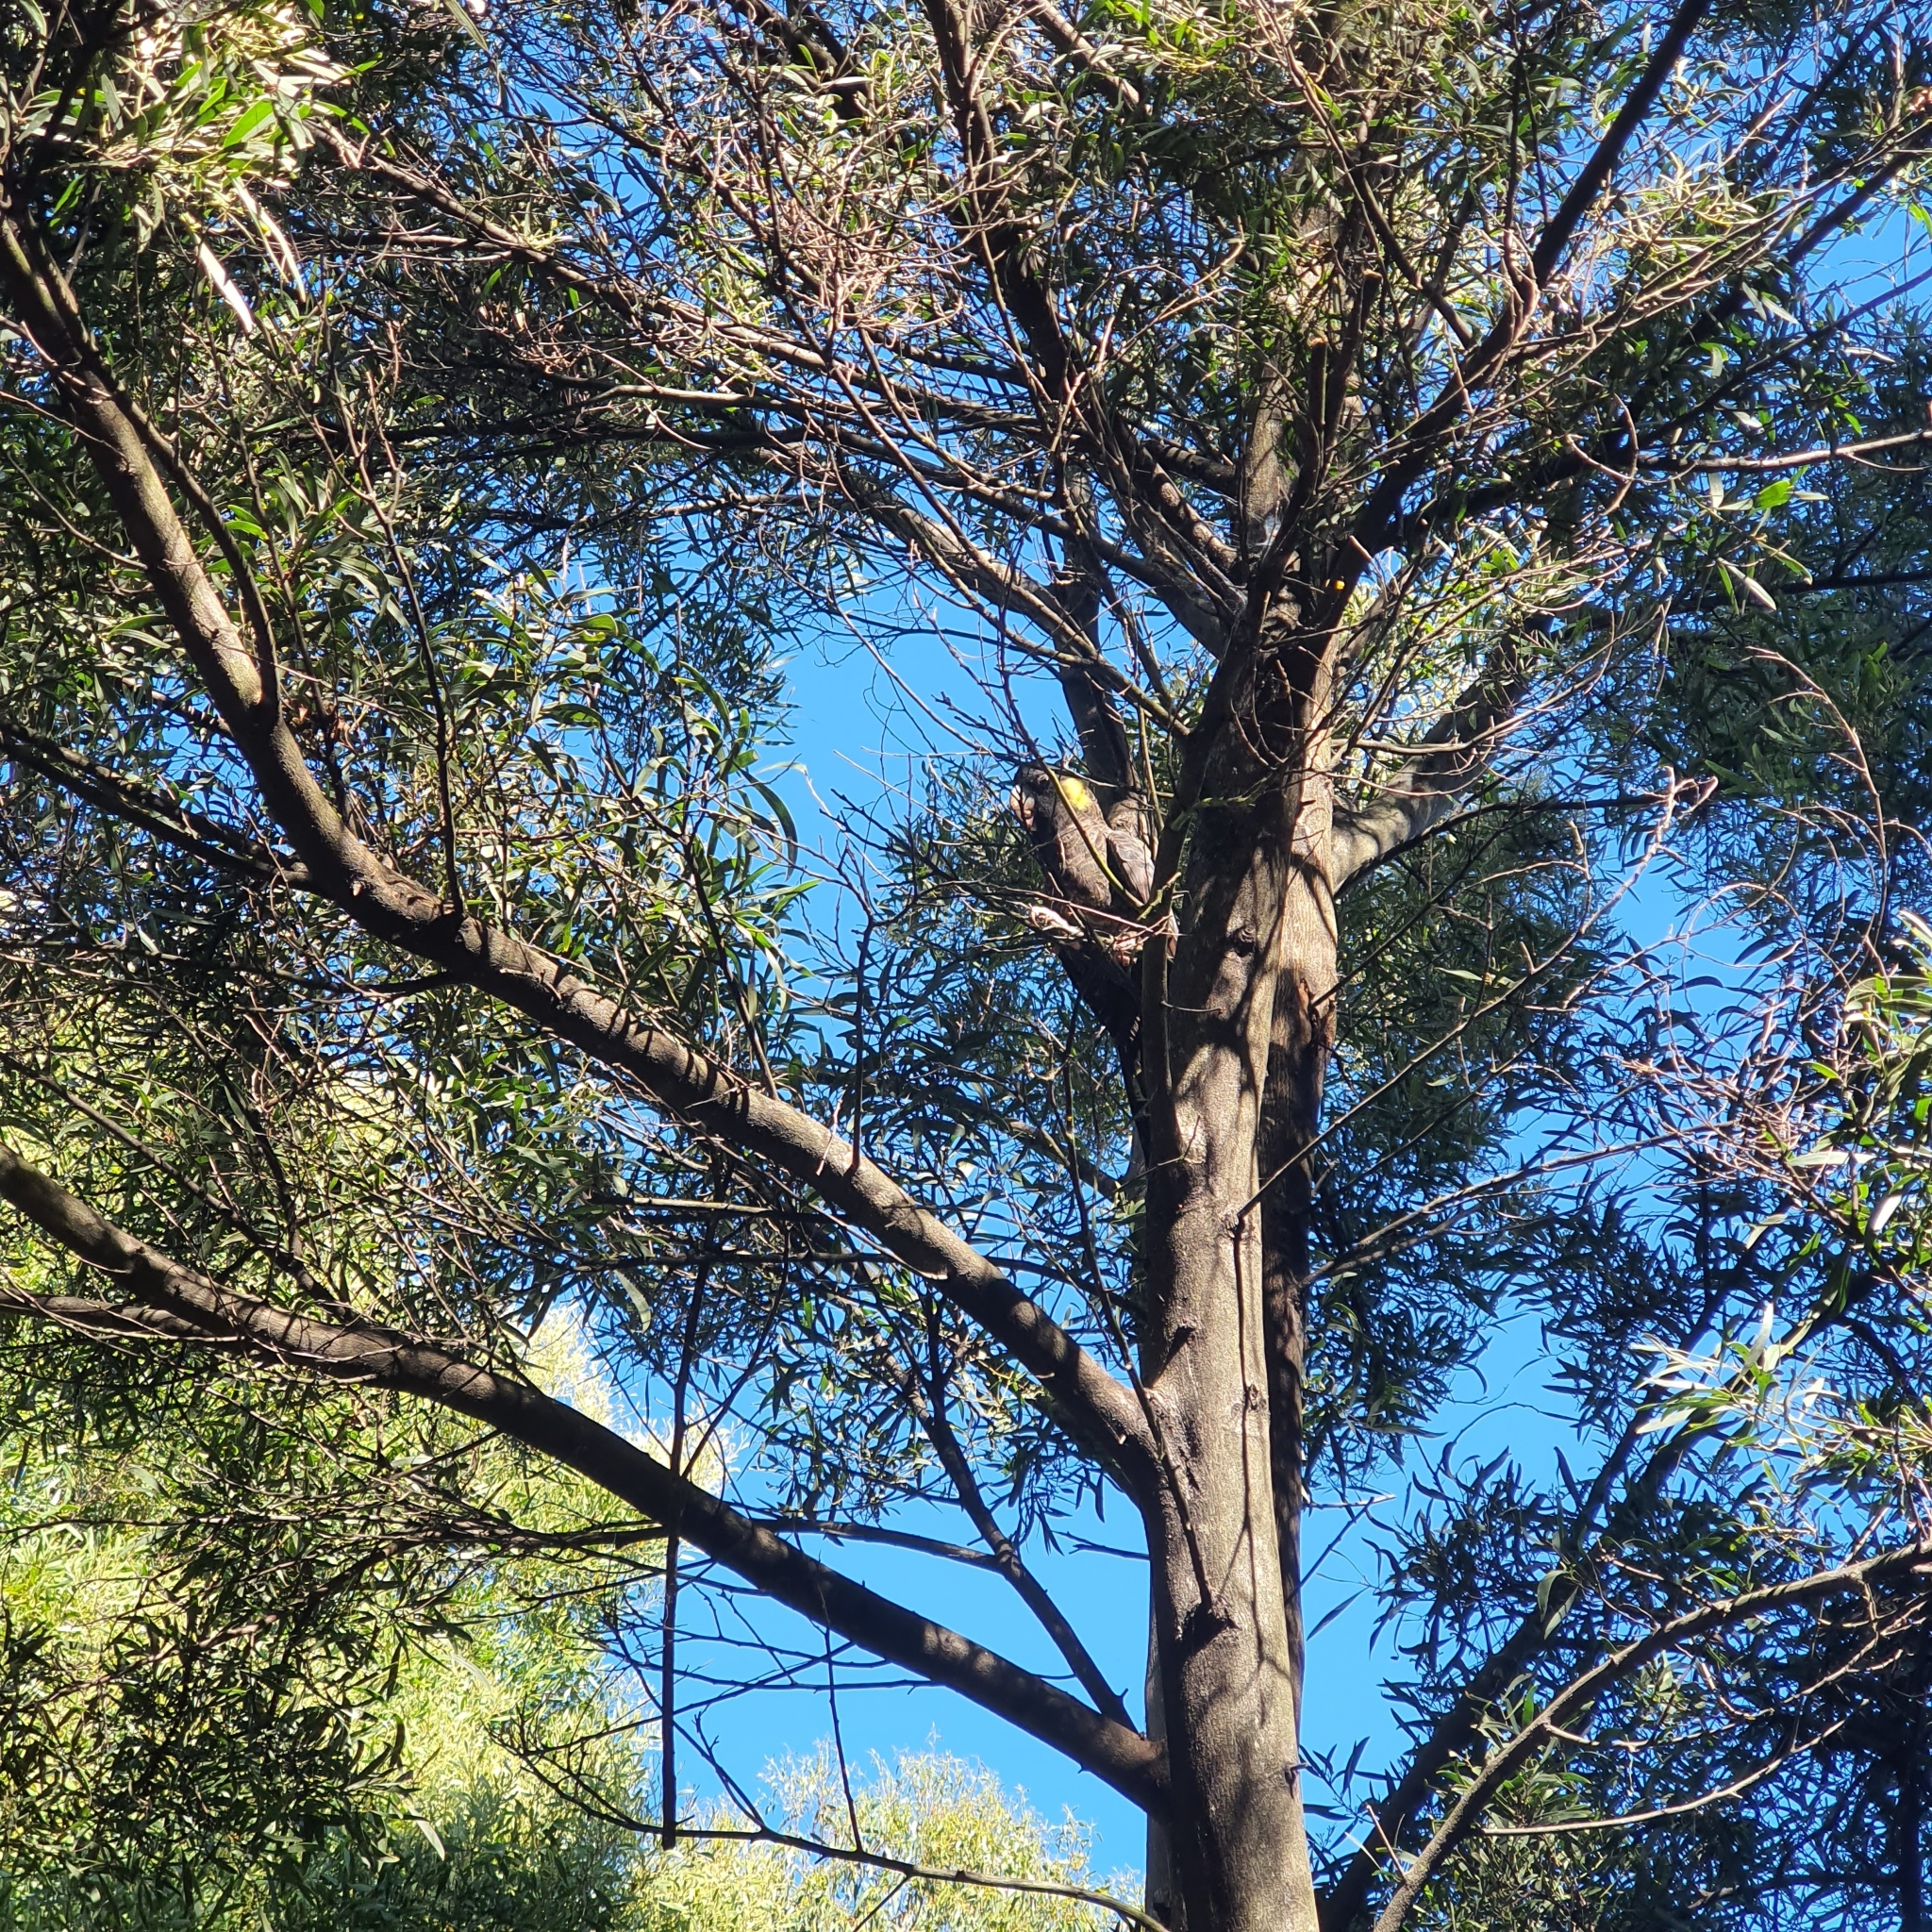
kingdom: Animalia
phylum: Chordata
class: Aves
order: Psittaciformes
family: Cacatuidae
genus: Zanda
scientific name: Zanda funerea
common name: Yellow-tailed black-cockatoo
